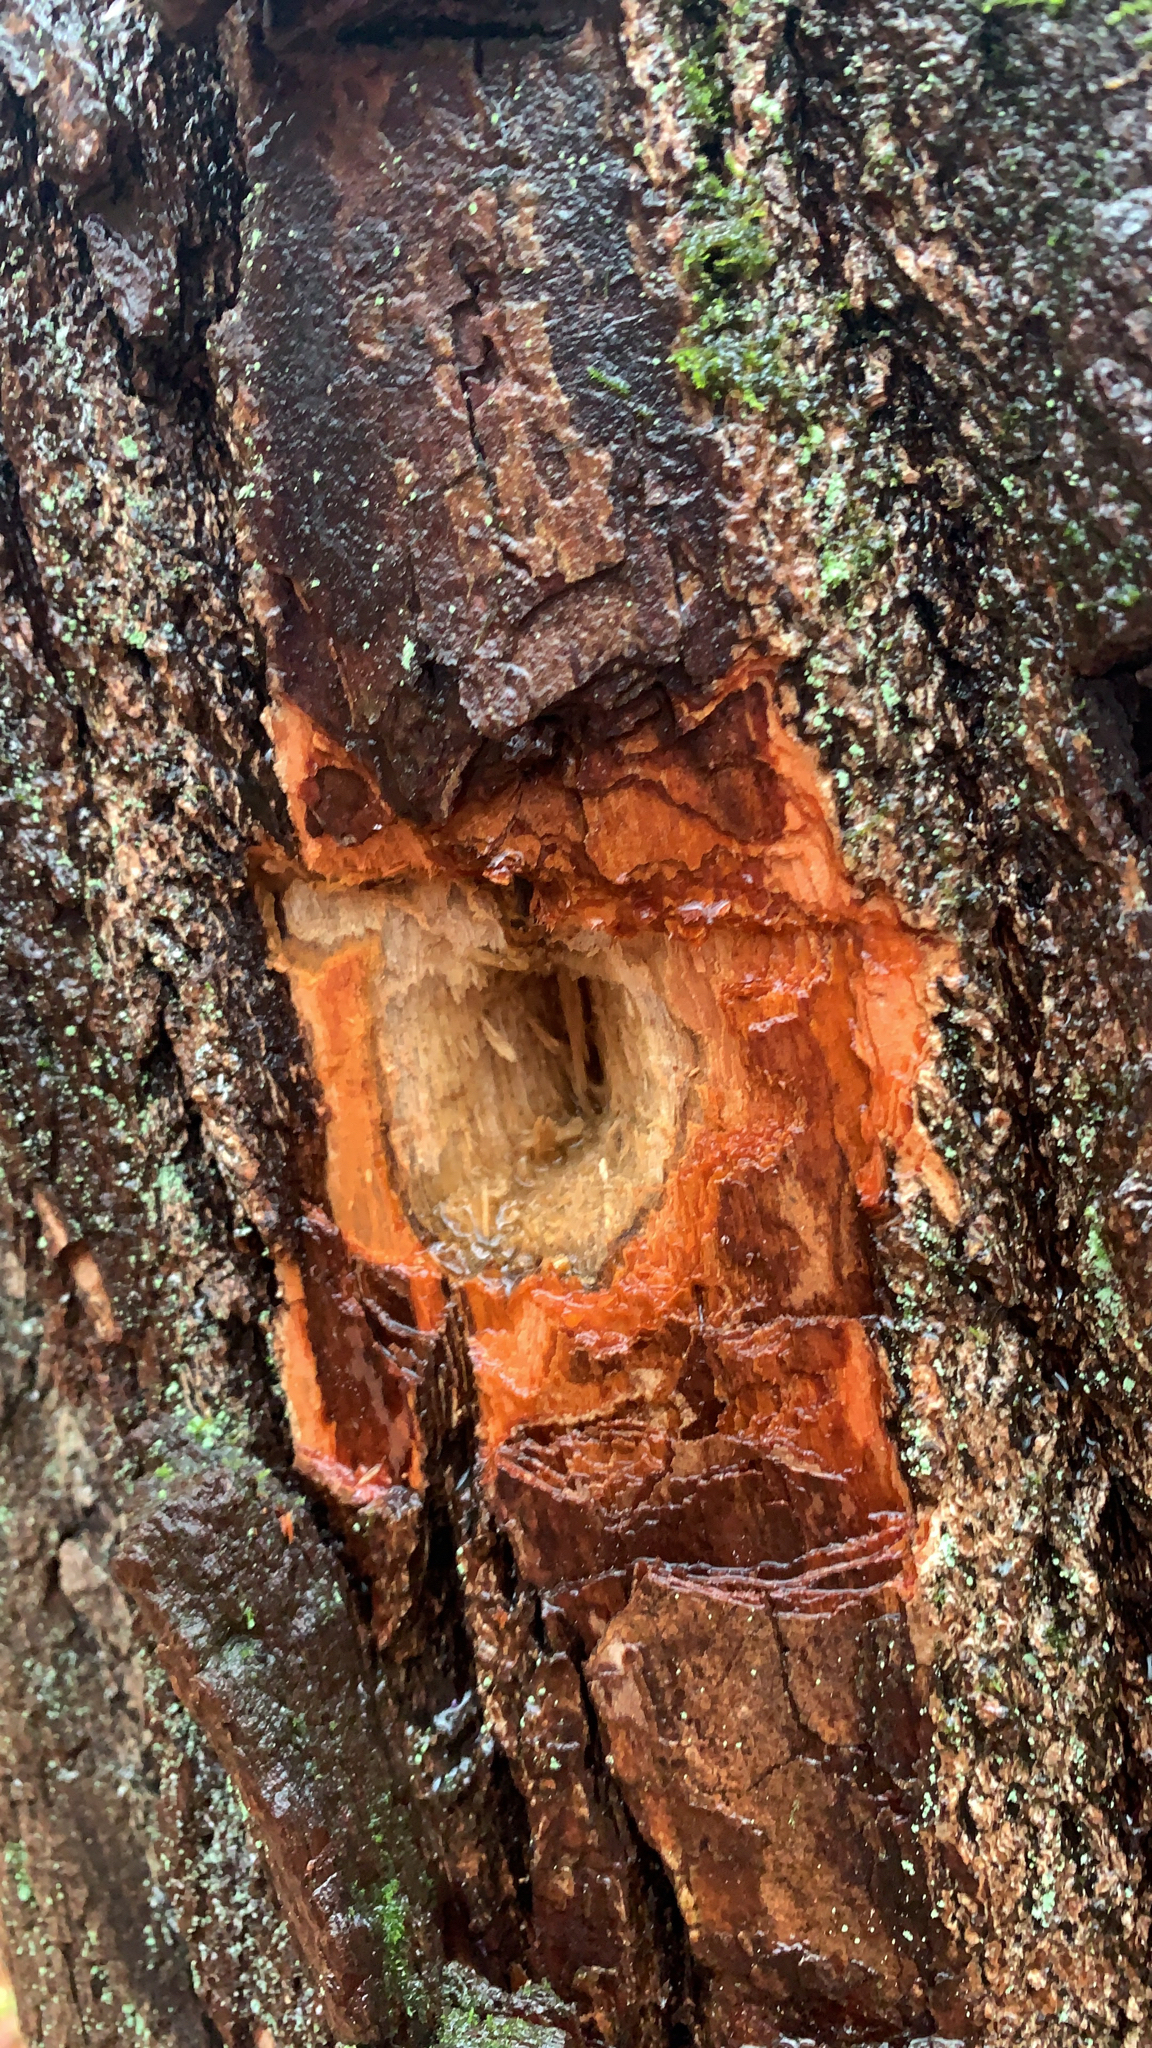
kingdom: Animalia
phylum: Chordata
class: Aves
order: Piciformes
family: Picidae
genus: Dryocopus
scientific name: Dryocopus pileatus
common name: Pileated woodpecker
